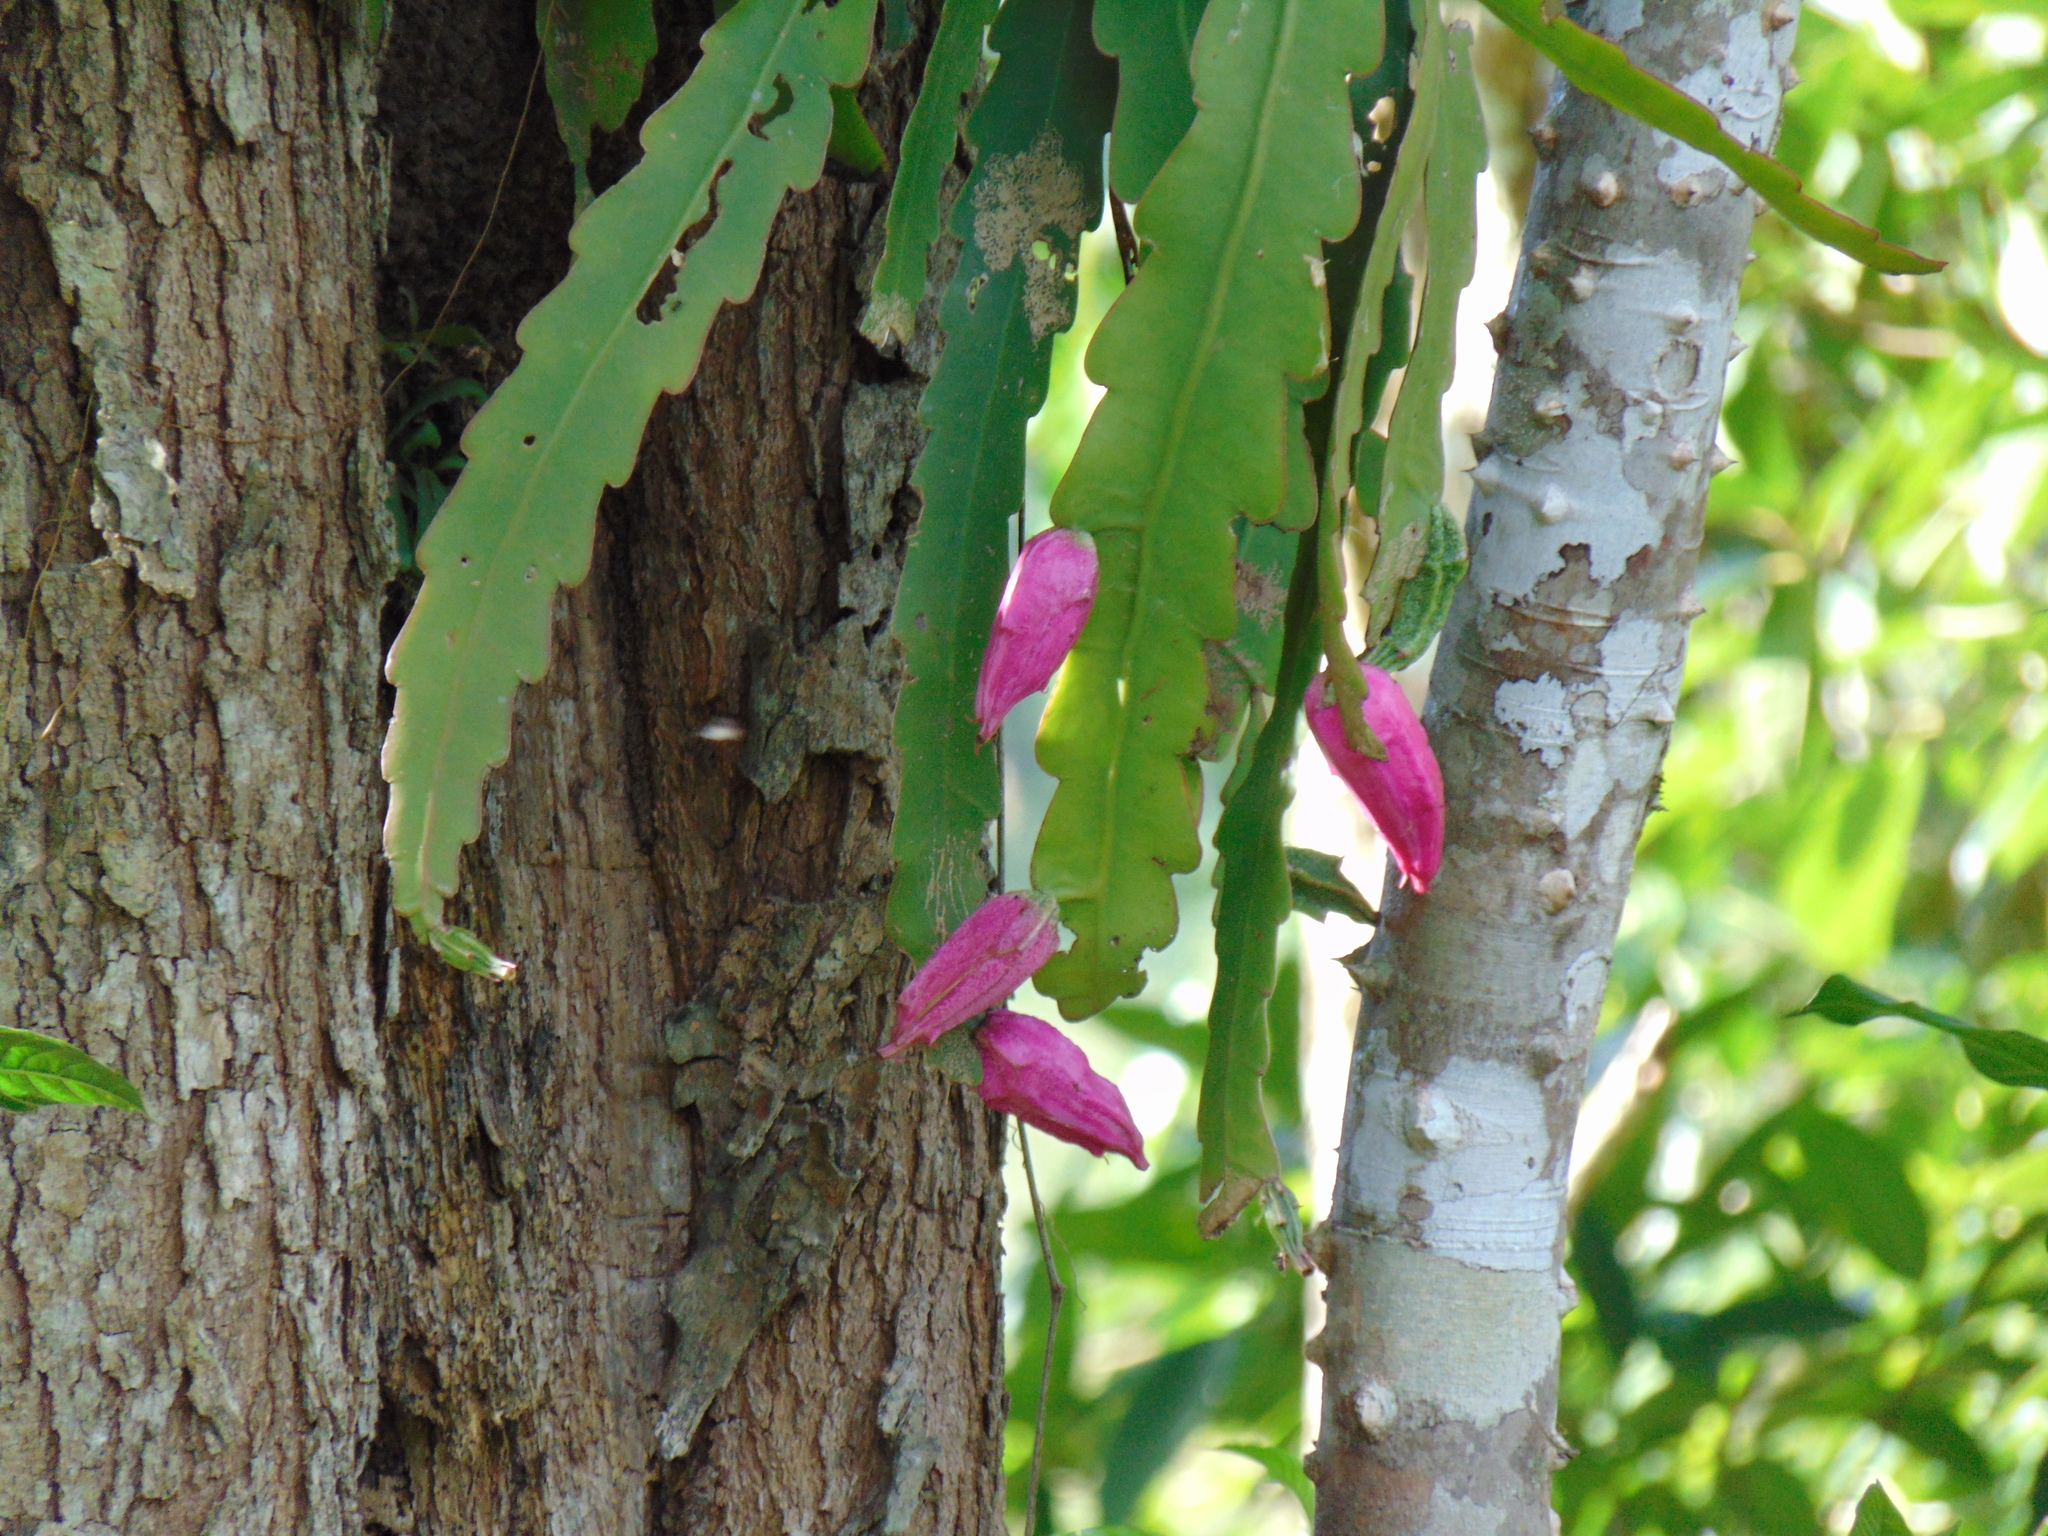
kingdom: Plantae
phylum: Tracheophyta
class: Magnoliopsida
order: Caryophyllales
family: Cactaceae
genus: Epiphyllum
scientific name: Epiphyllum phyllanthus
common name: Climbing cactus
